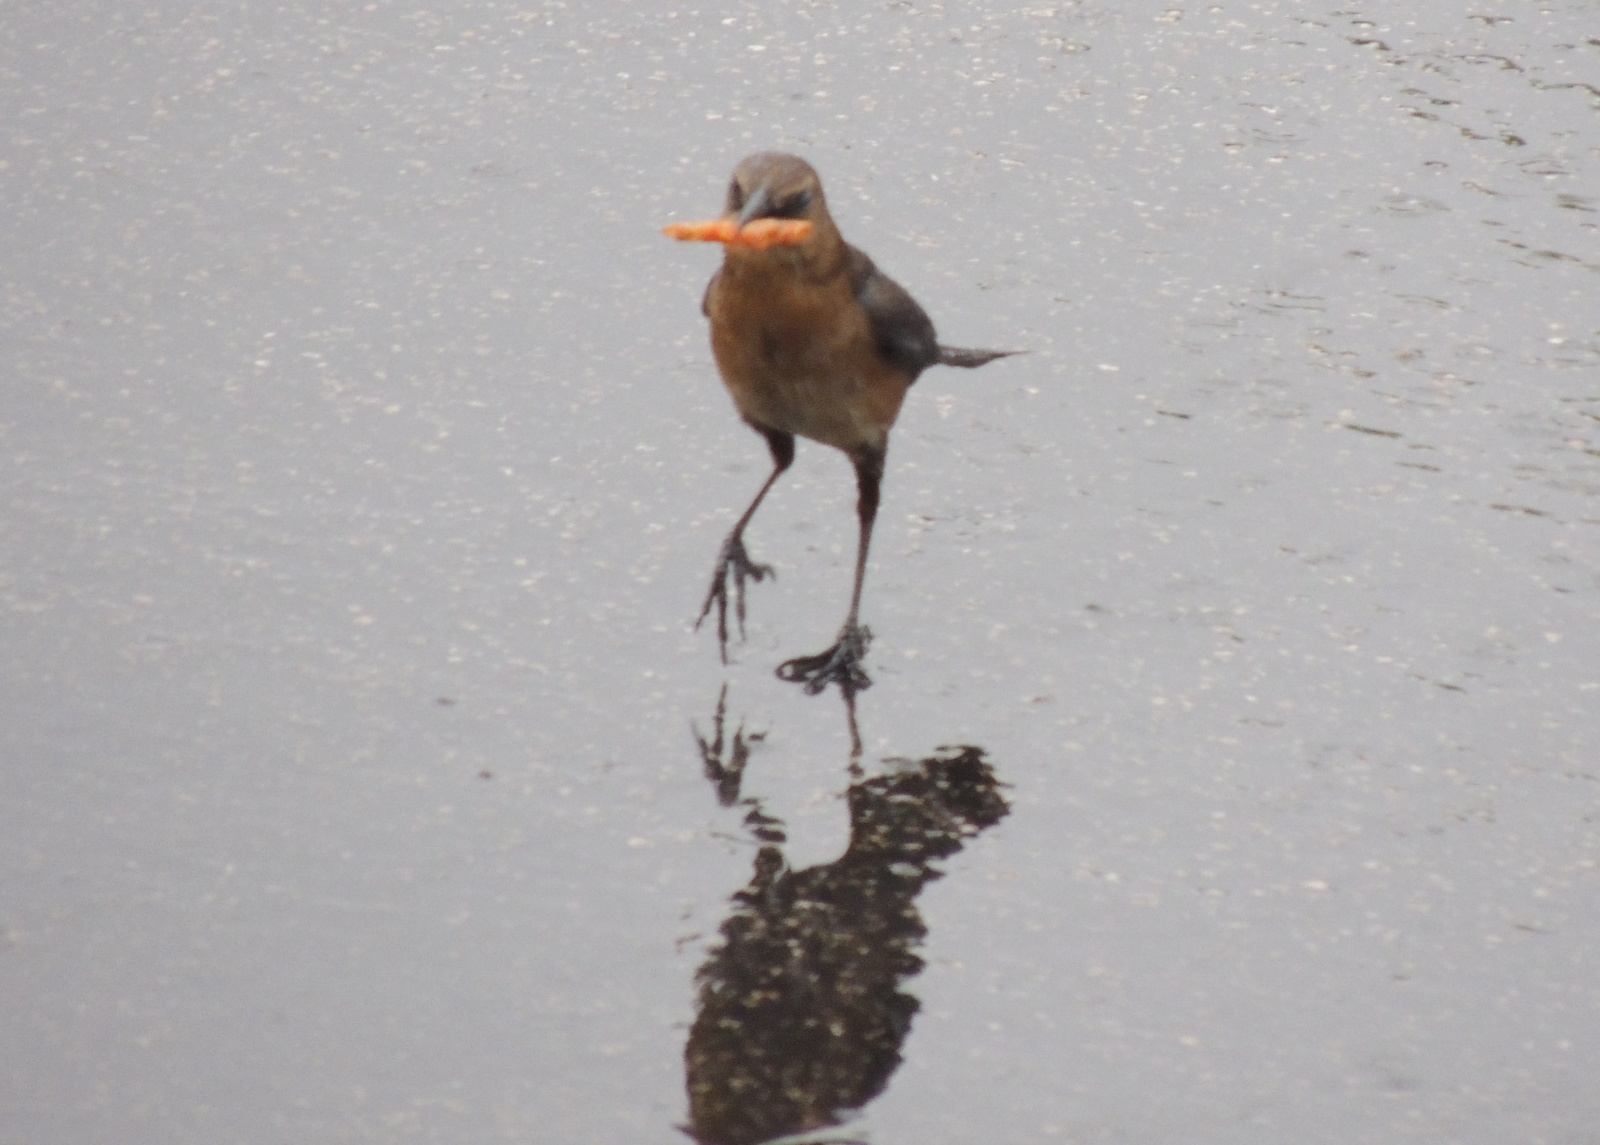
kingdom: Animalia
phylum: Chordata
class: Aves
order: Passeriformes
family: Icteridae
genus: Quiscalus
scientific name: Quiscalus major
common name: Boat-tailed grackle
